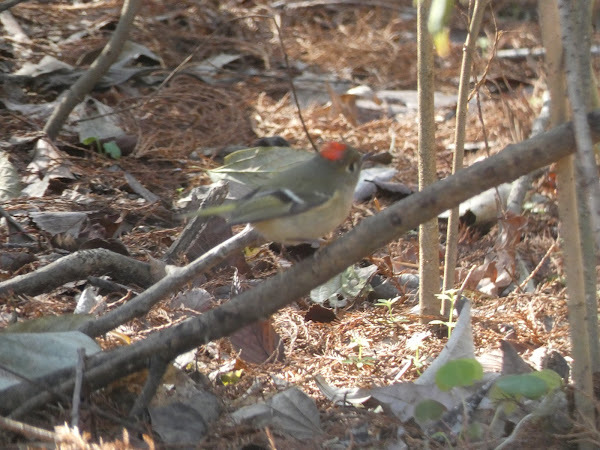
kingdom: Animalia
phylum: Chordata
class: Aves
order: Passeriformes
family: Regulidae
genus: Regulus
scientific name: Regulus calendula
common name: Ruby-crowned kinglet
